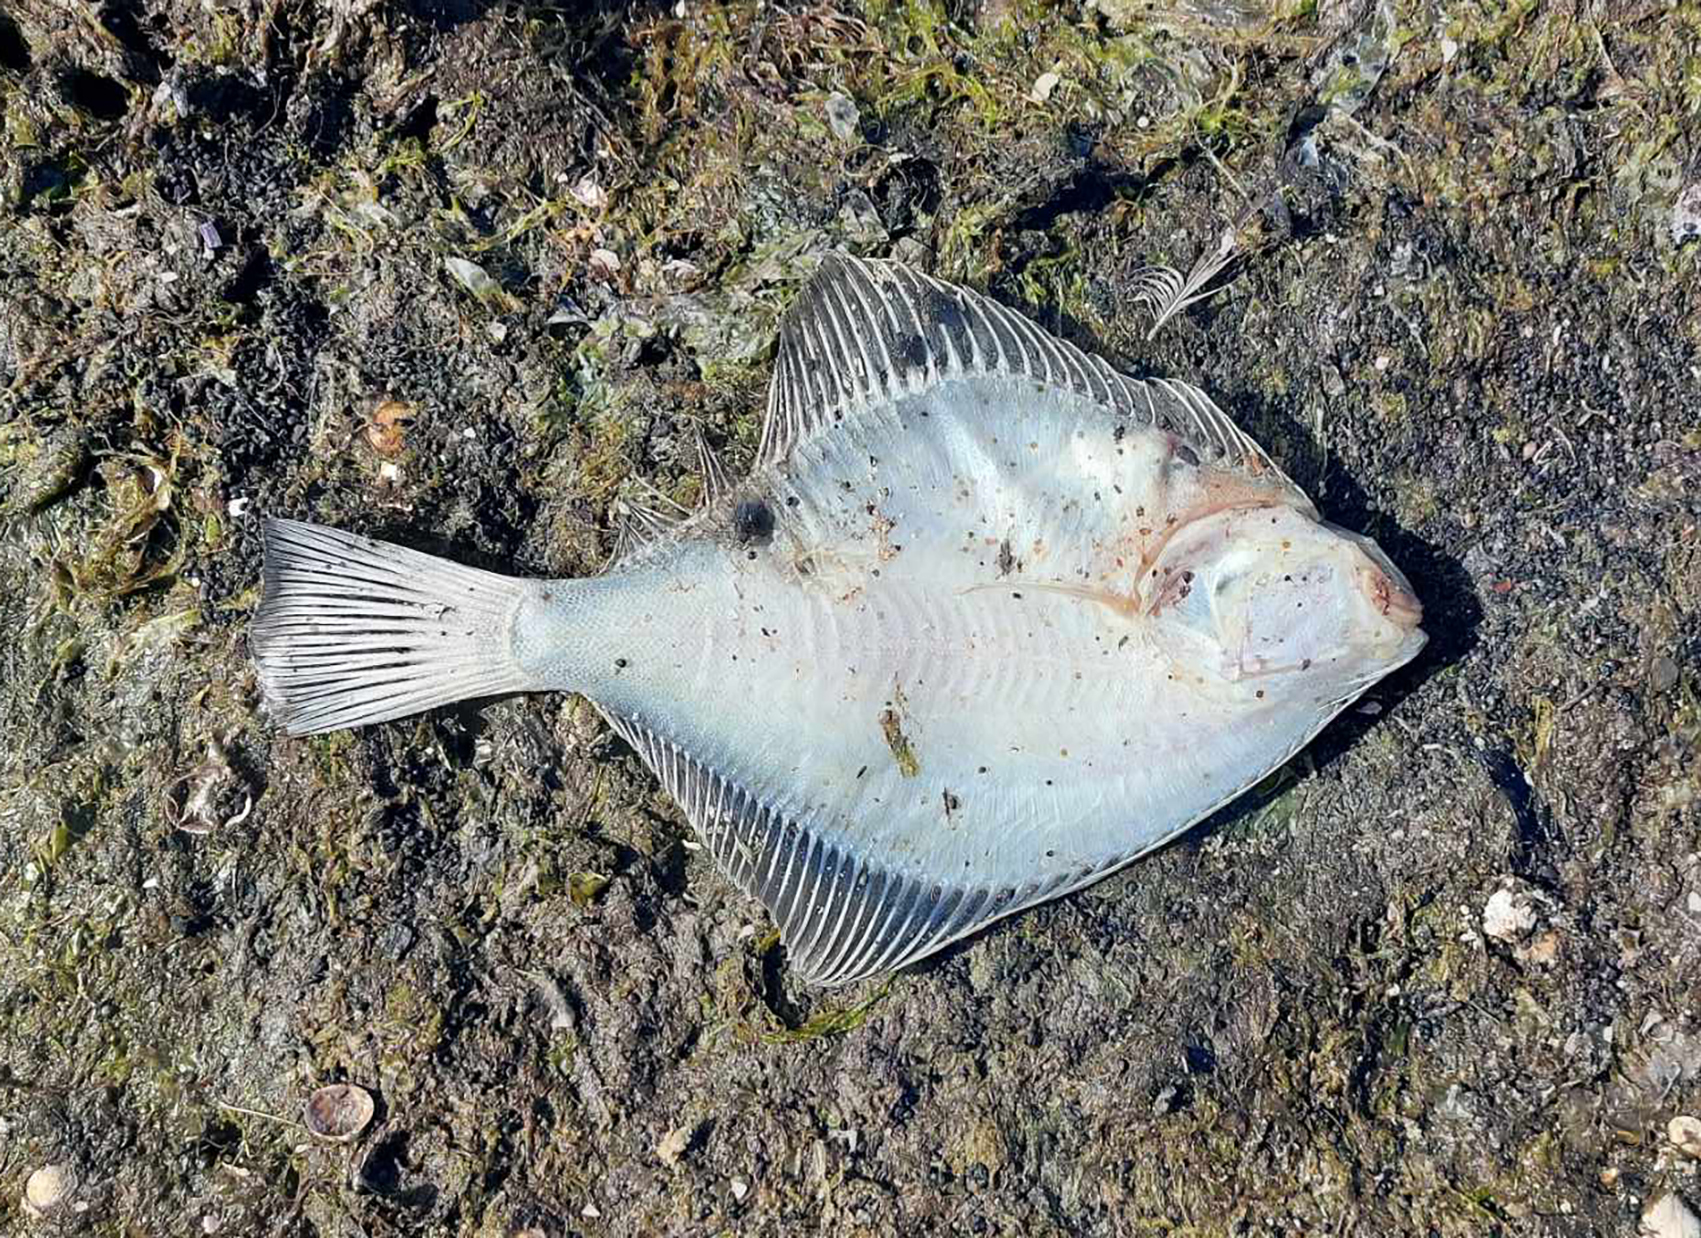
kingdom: Animalia
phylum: Chordata
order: Pleuronectiformes
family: Pleuronectidae
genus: Rhombosolea
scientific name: Rhombosolea plebeia
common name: Dab
